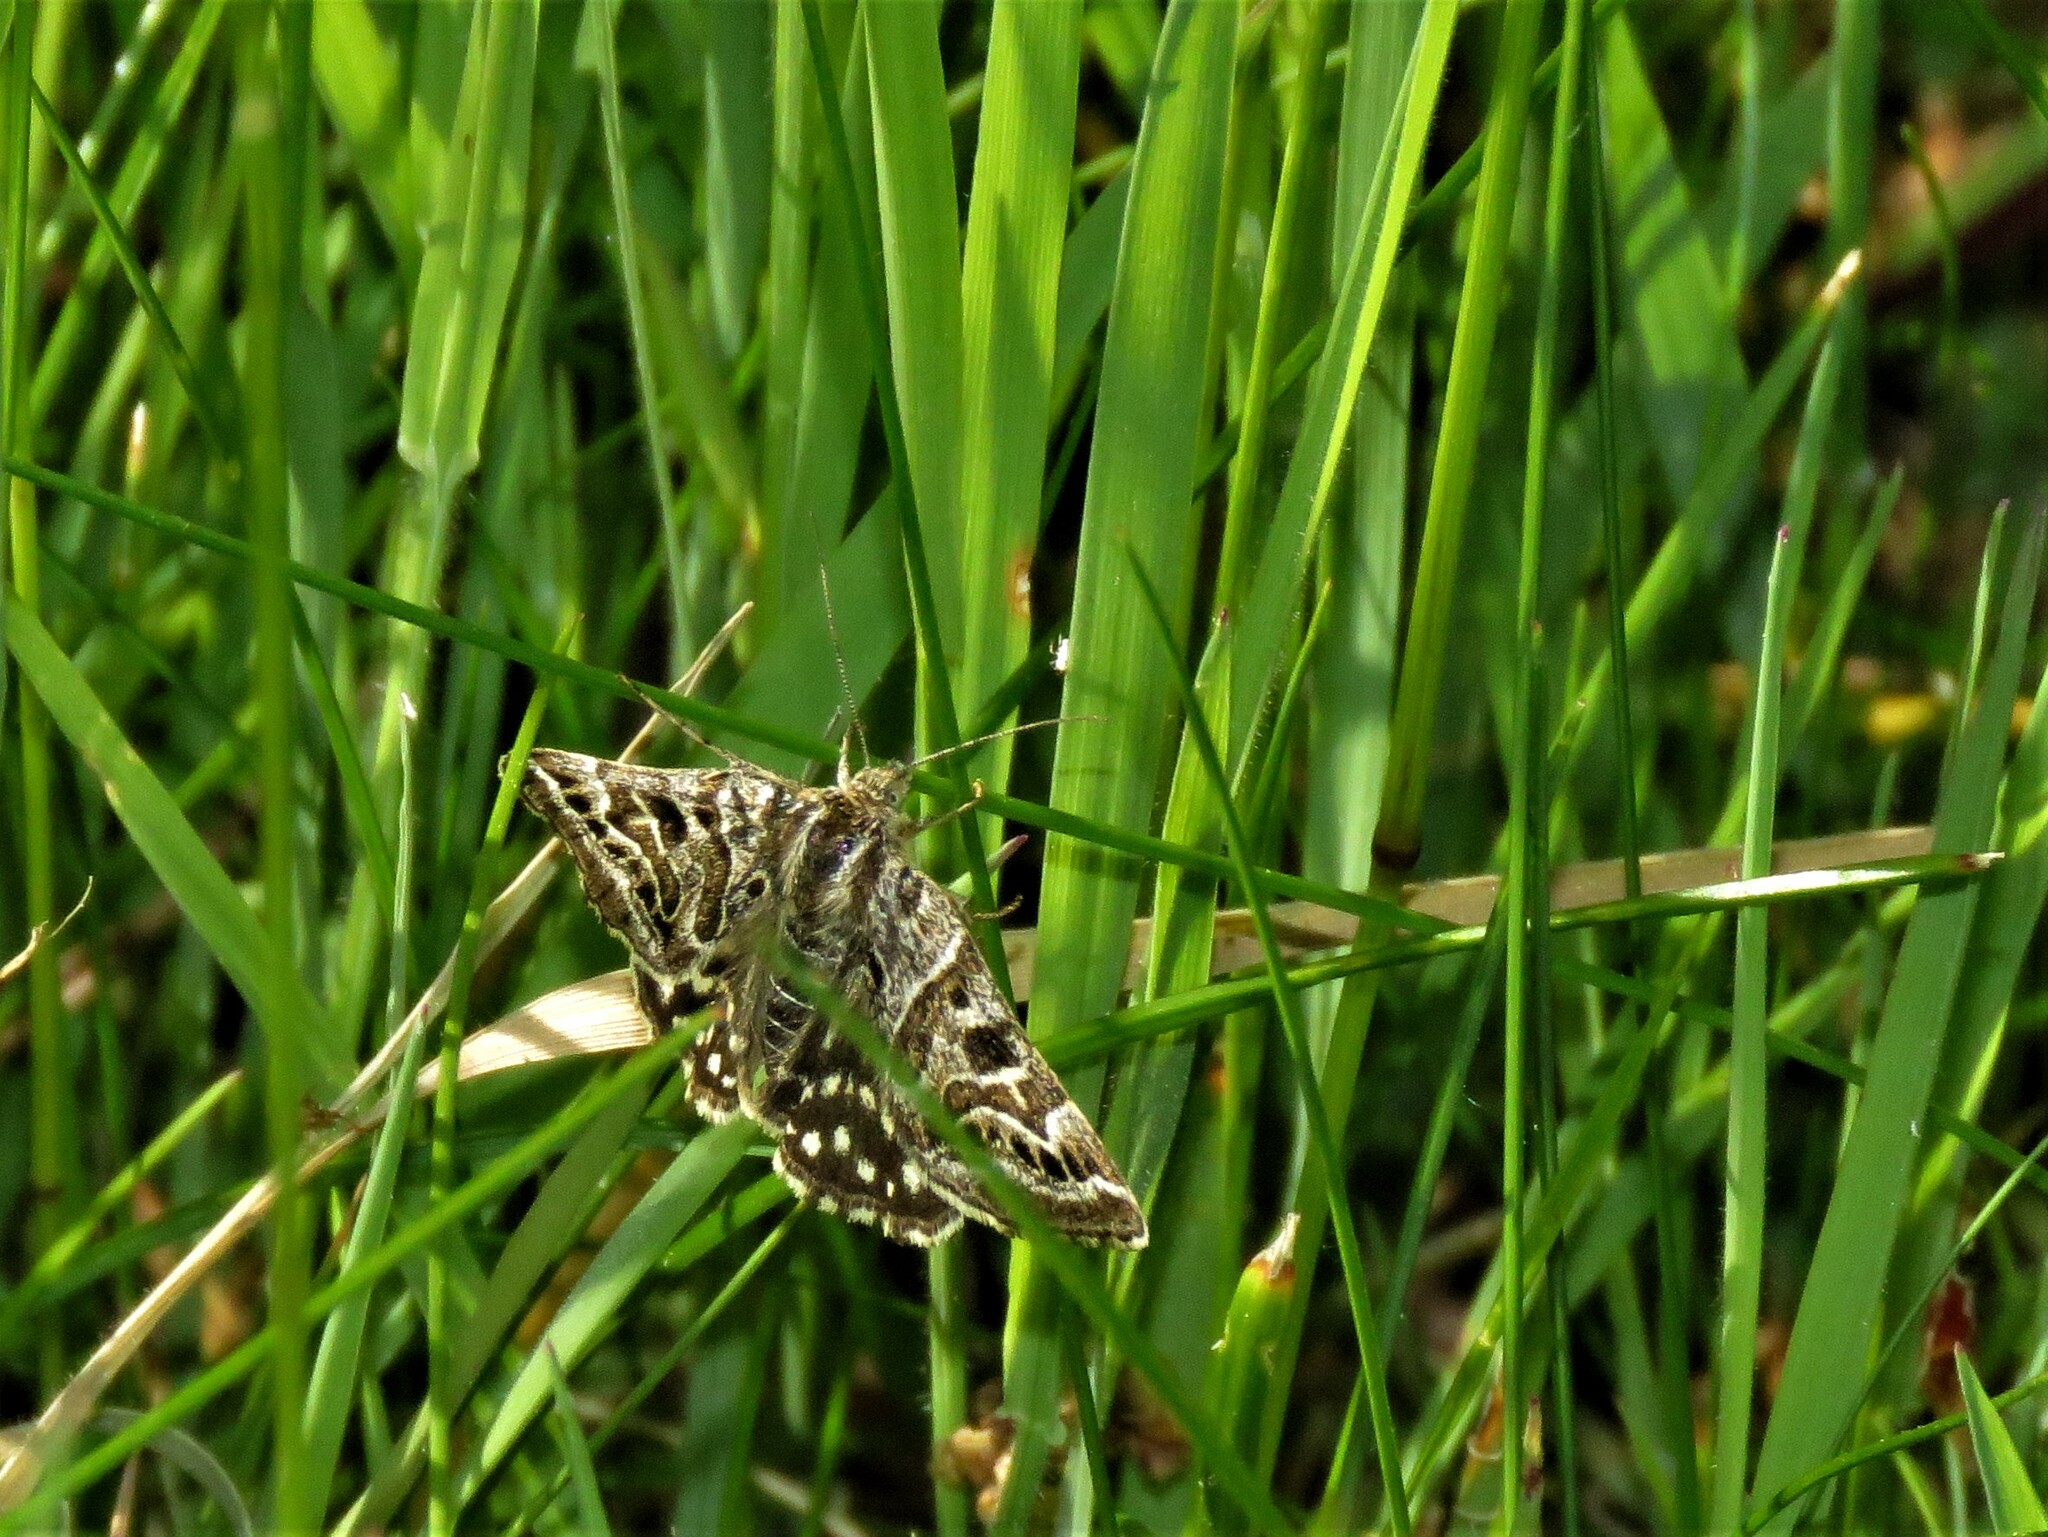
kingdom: Animalia
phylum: Arthropoda
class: Insecta
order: Lepidoptera
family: Erebidae
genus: Callistege
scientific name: Callistege mi
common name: Mother shipton
